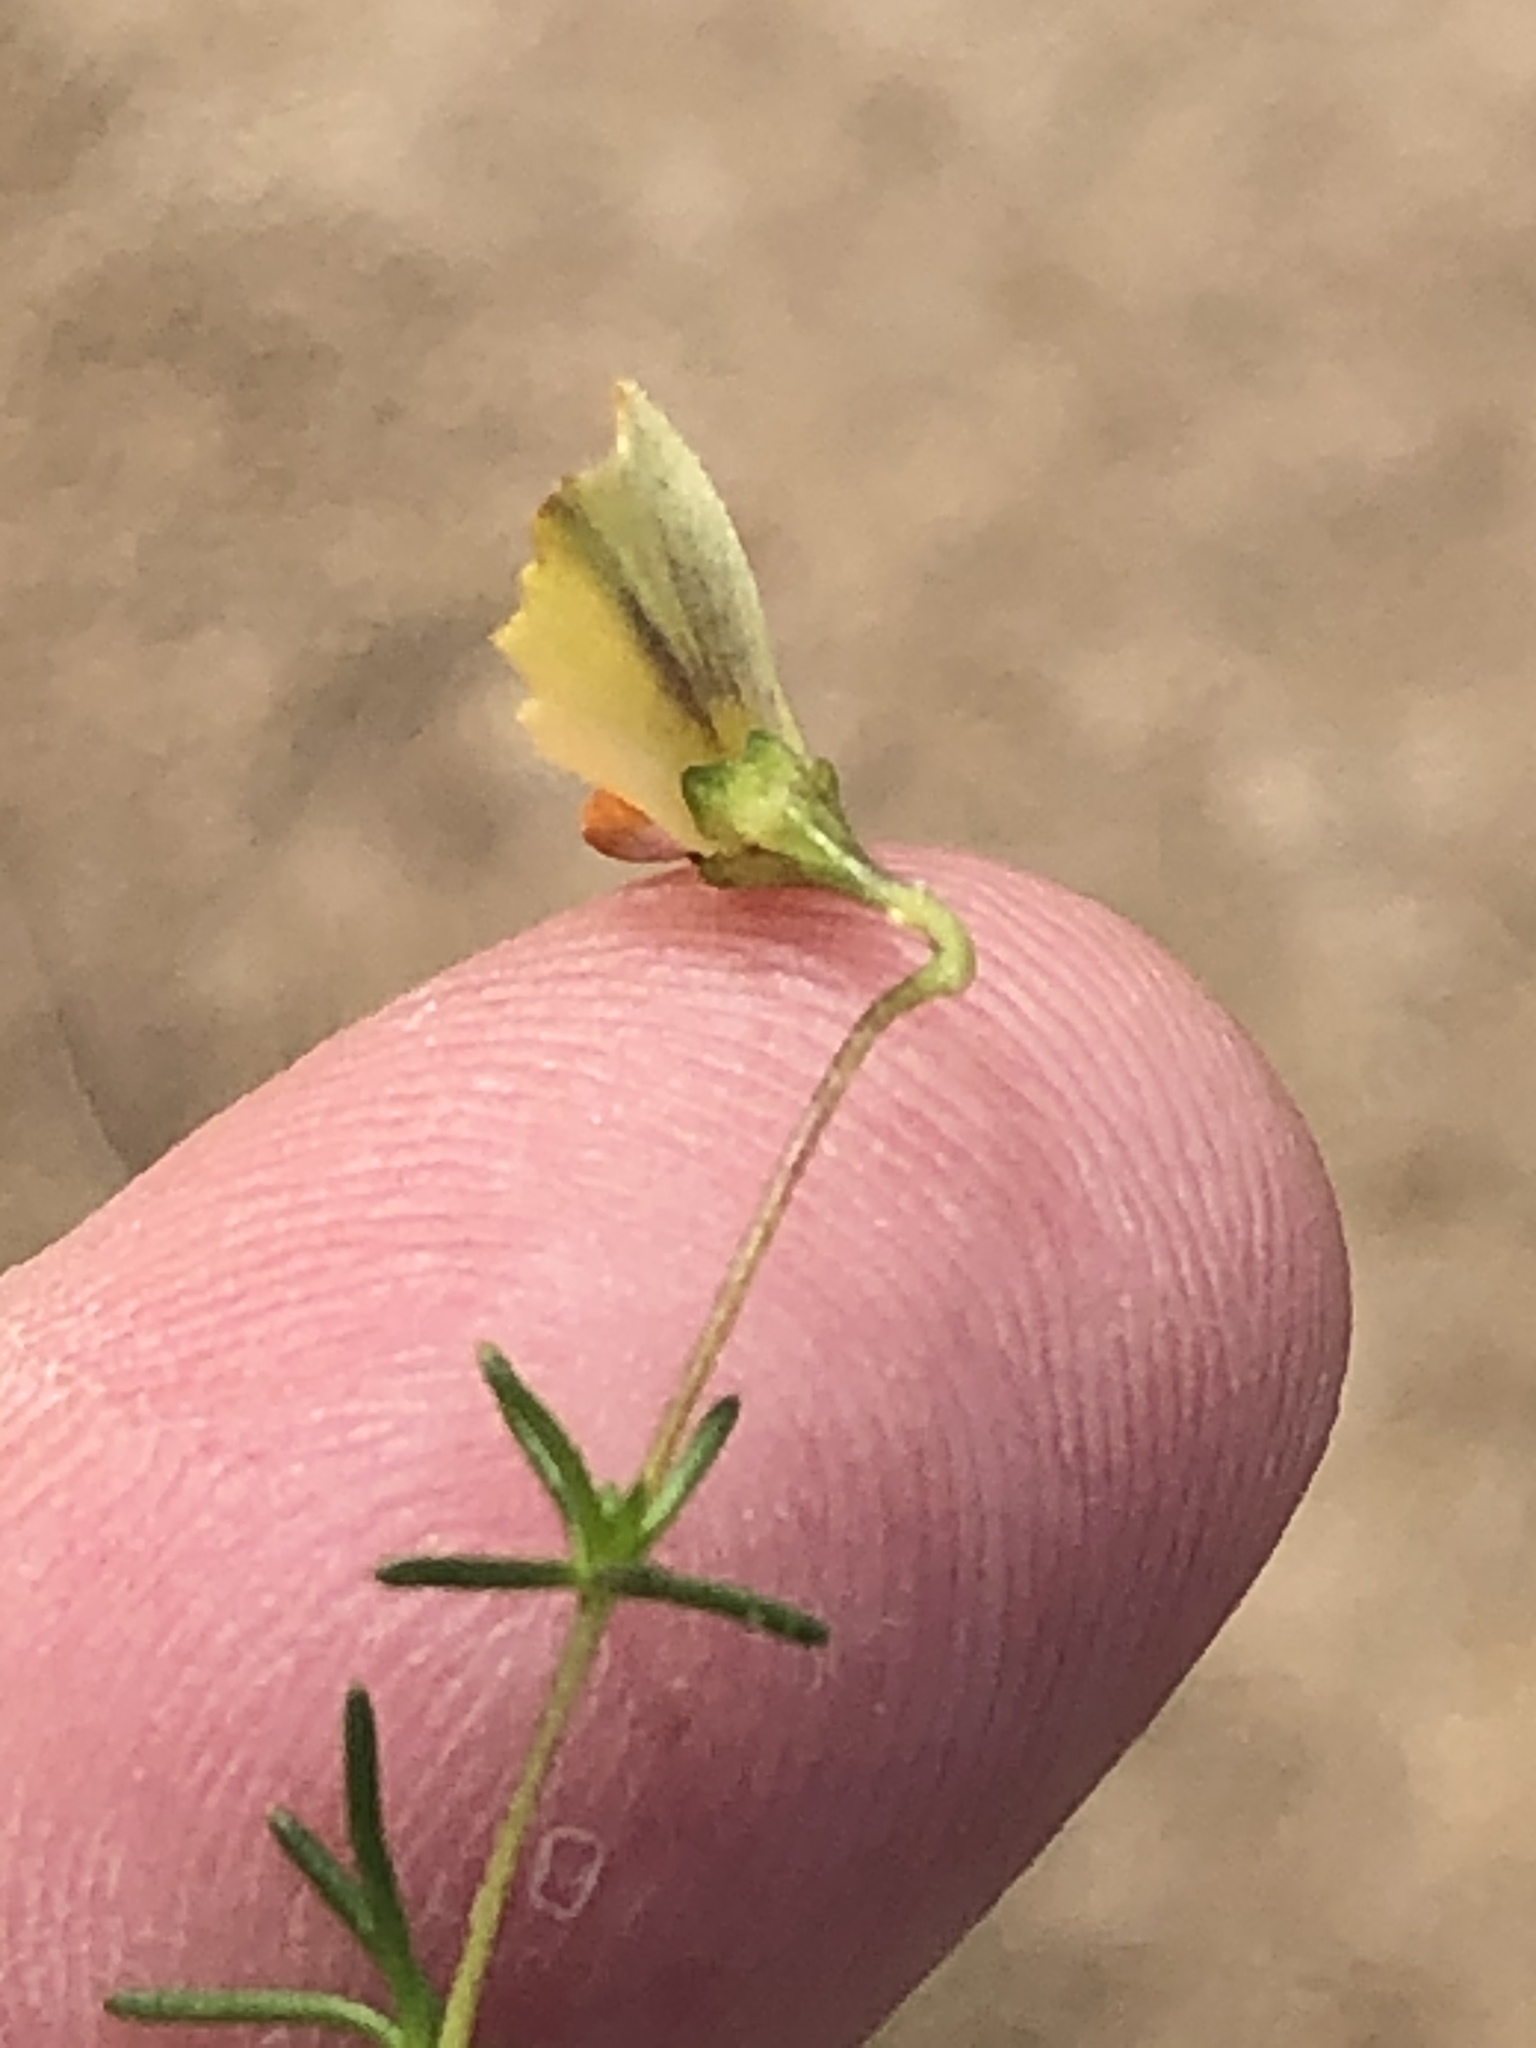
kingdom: Plantae
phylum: Tracheophyta
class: Magnoliopsida
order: Fabales
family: Fabaceae
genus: Aspalathus
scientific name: Aspalathus biflora
